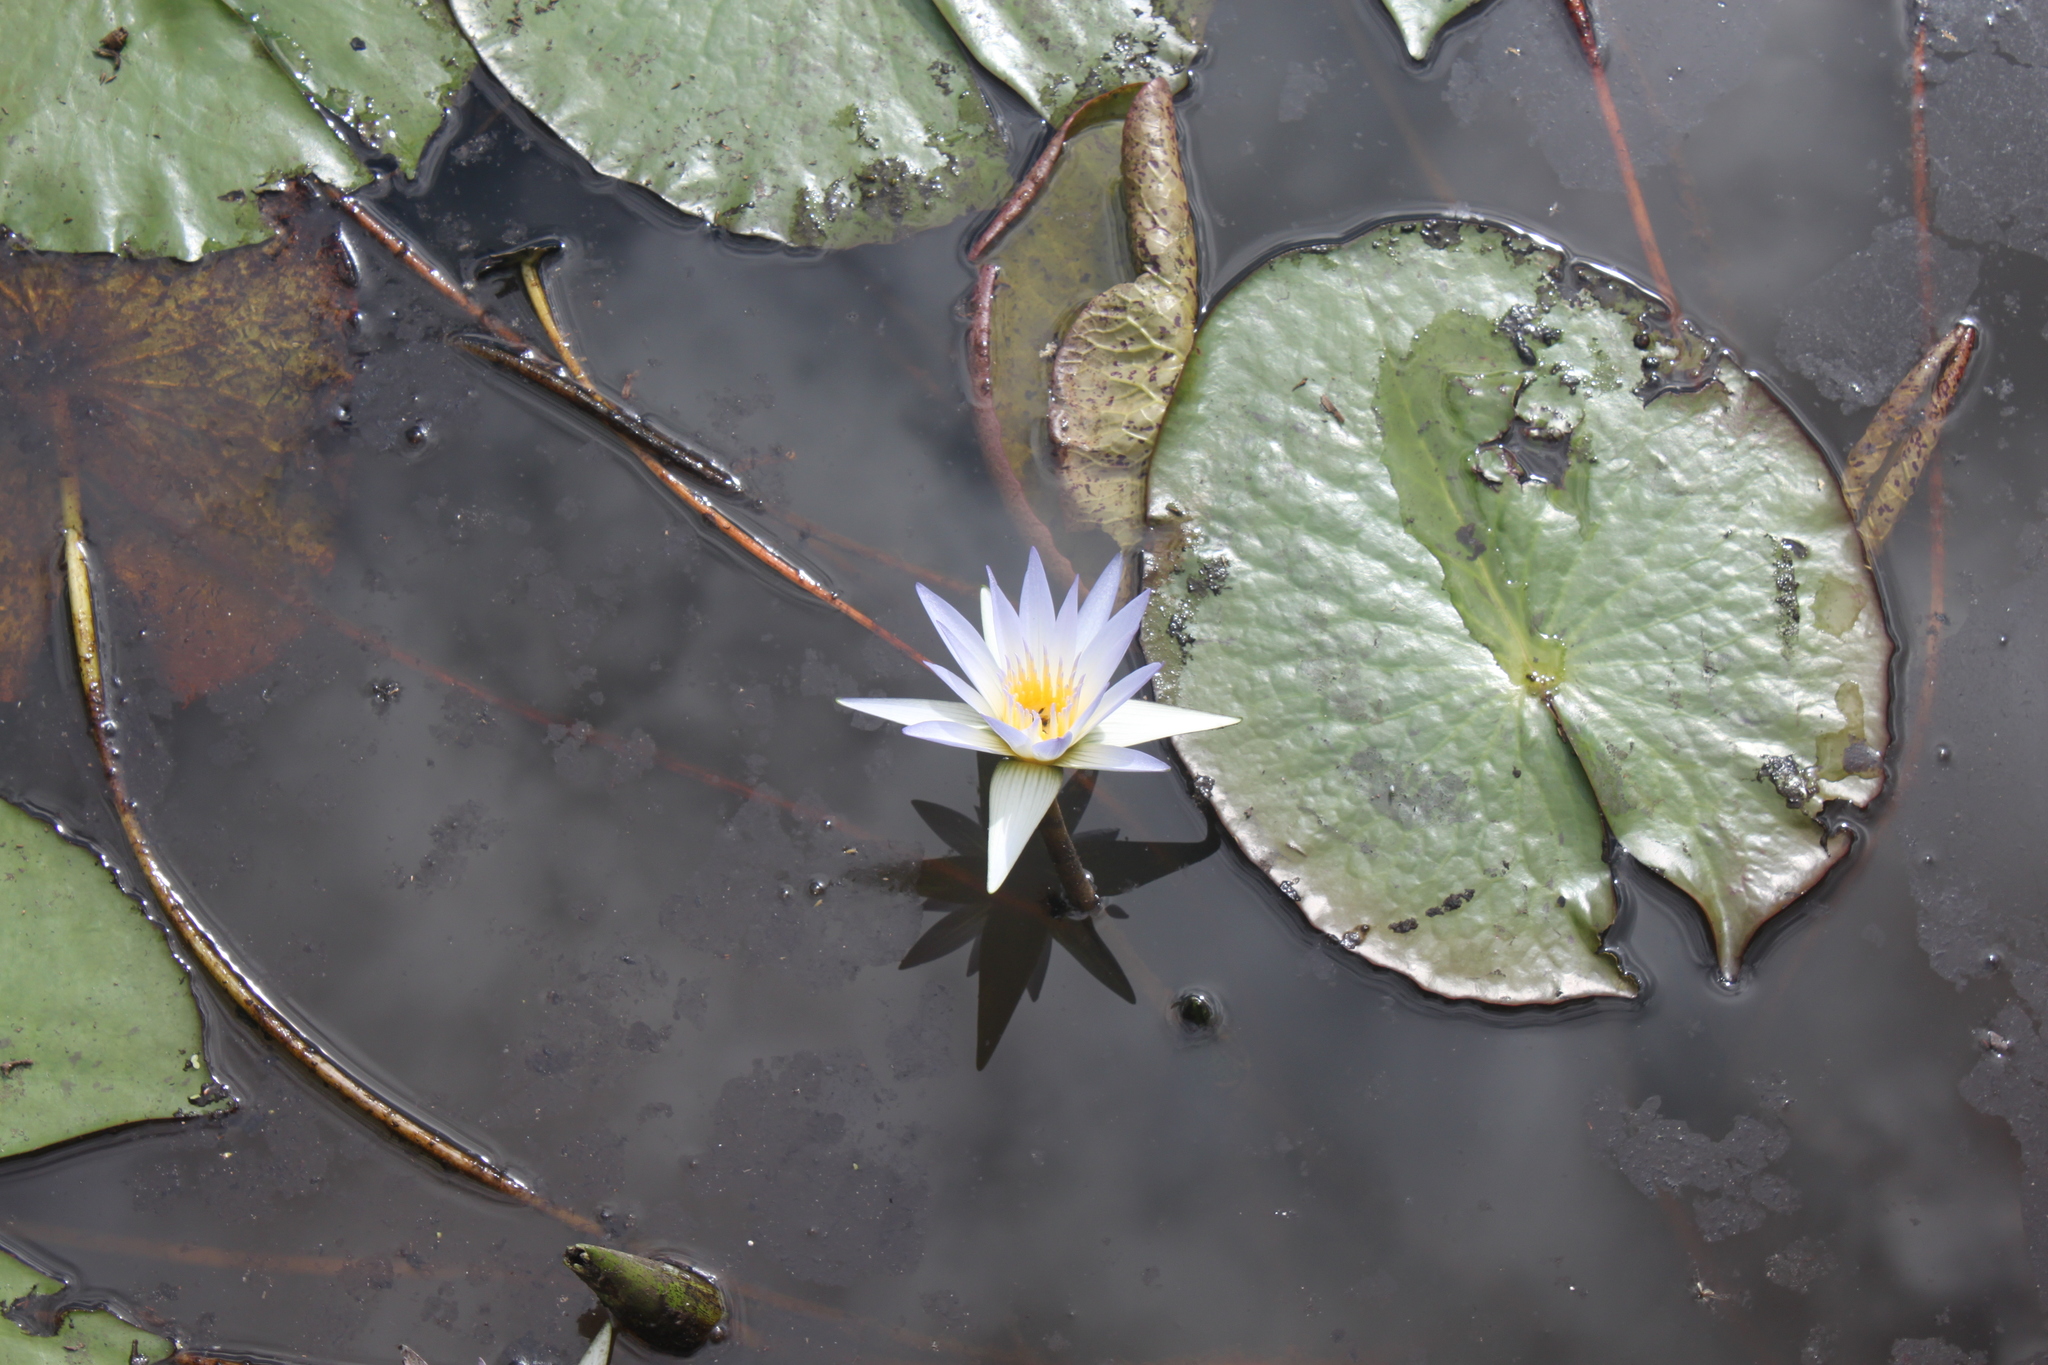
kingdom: Plantae
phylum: Tracheophyta
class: Magnoliopsida
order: Nymphaeales
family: Nymphaeaceae
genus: Nymphaea
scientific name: Nymphaea nouchali
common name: Blue lotus
